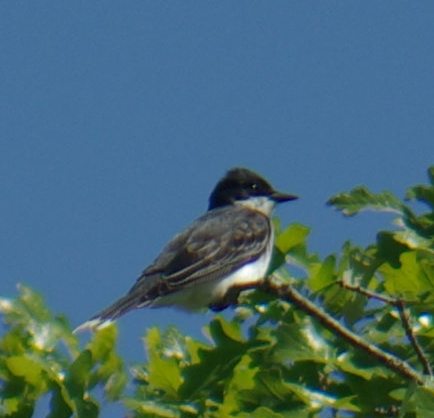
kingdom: Animalia
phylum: Chordata
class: Aves
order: Passeriformes
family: Tyrannidae
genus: Tyrannus
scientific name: Tyrannus tyrannus
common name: Eastern kingbird
